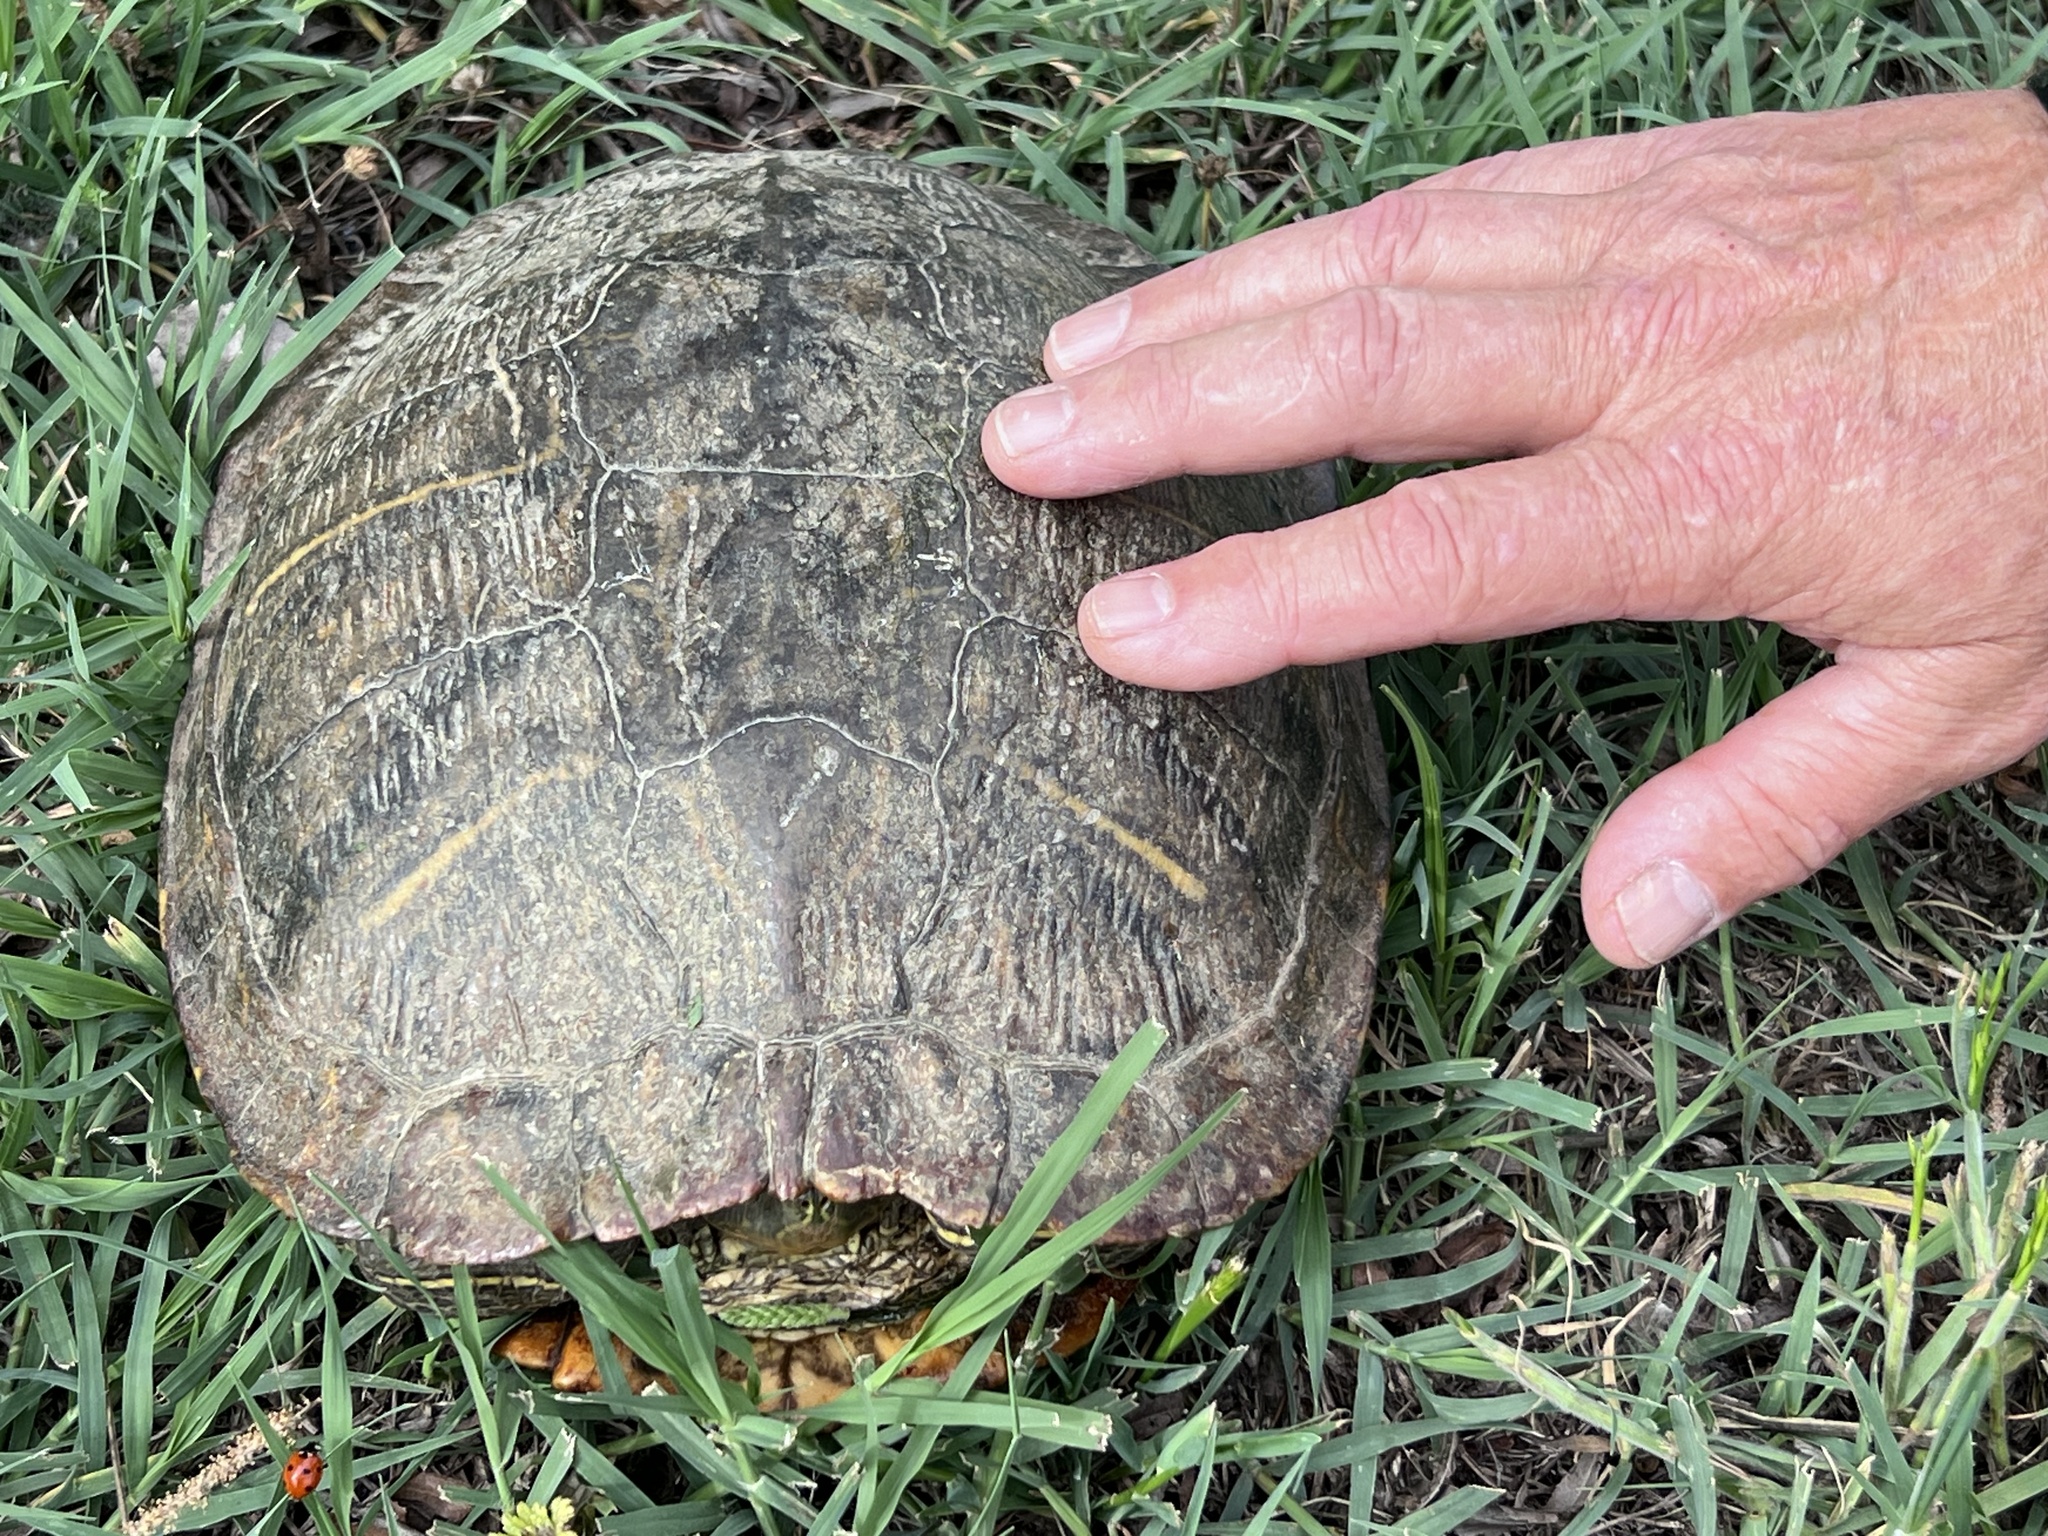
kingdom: Animalia
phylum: Chordata
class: Testudines
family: Emydidae
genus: Trachemys
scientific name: Trachemys scripta
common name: Slider
